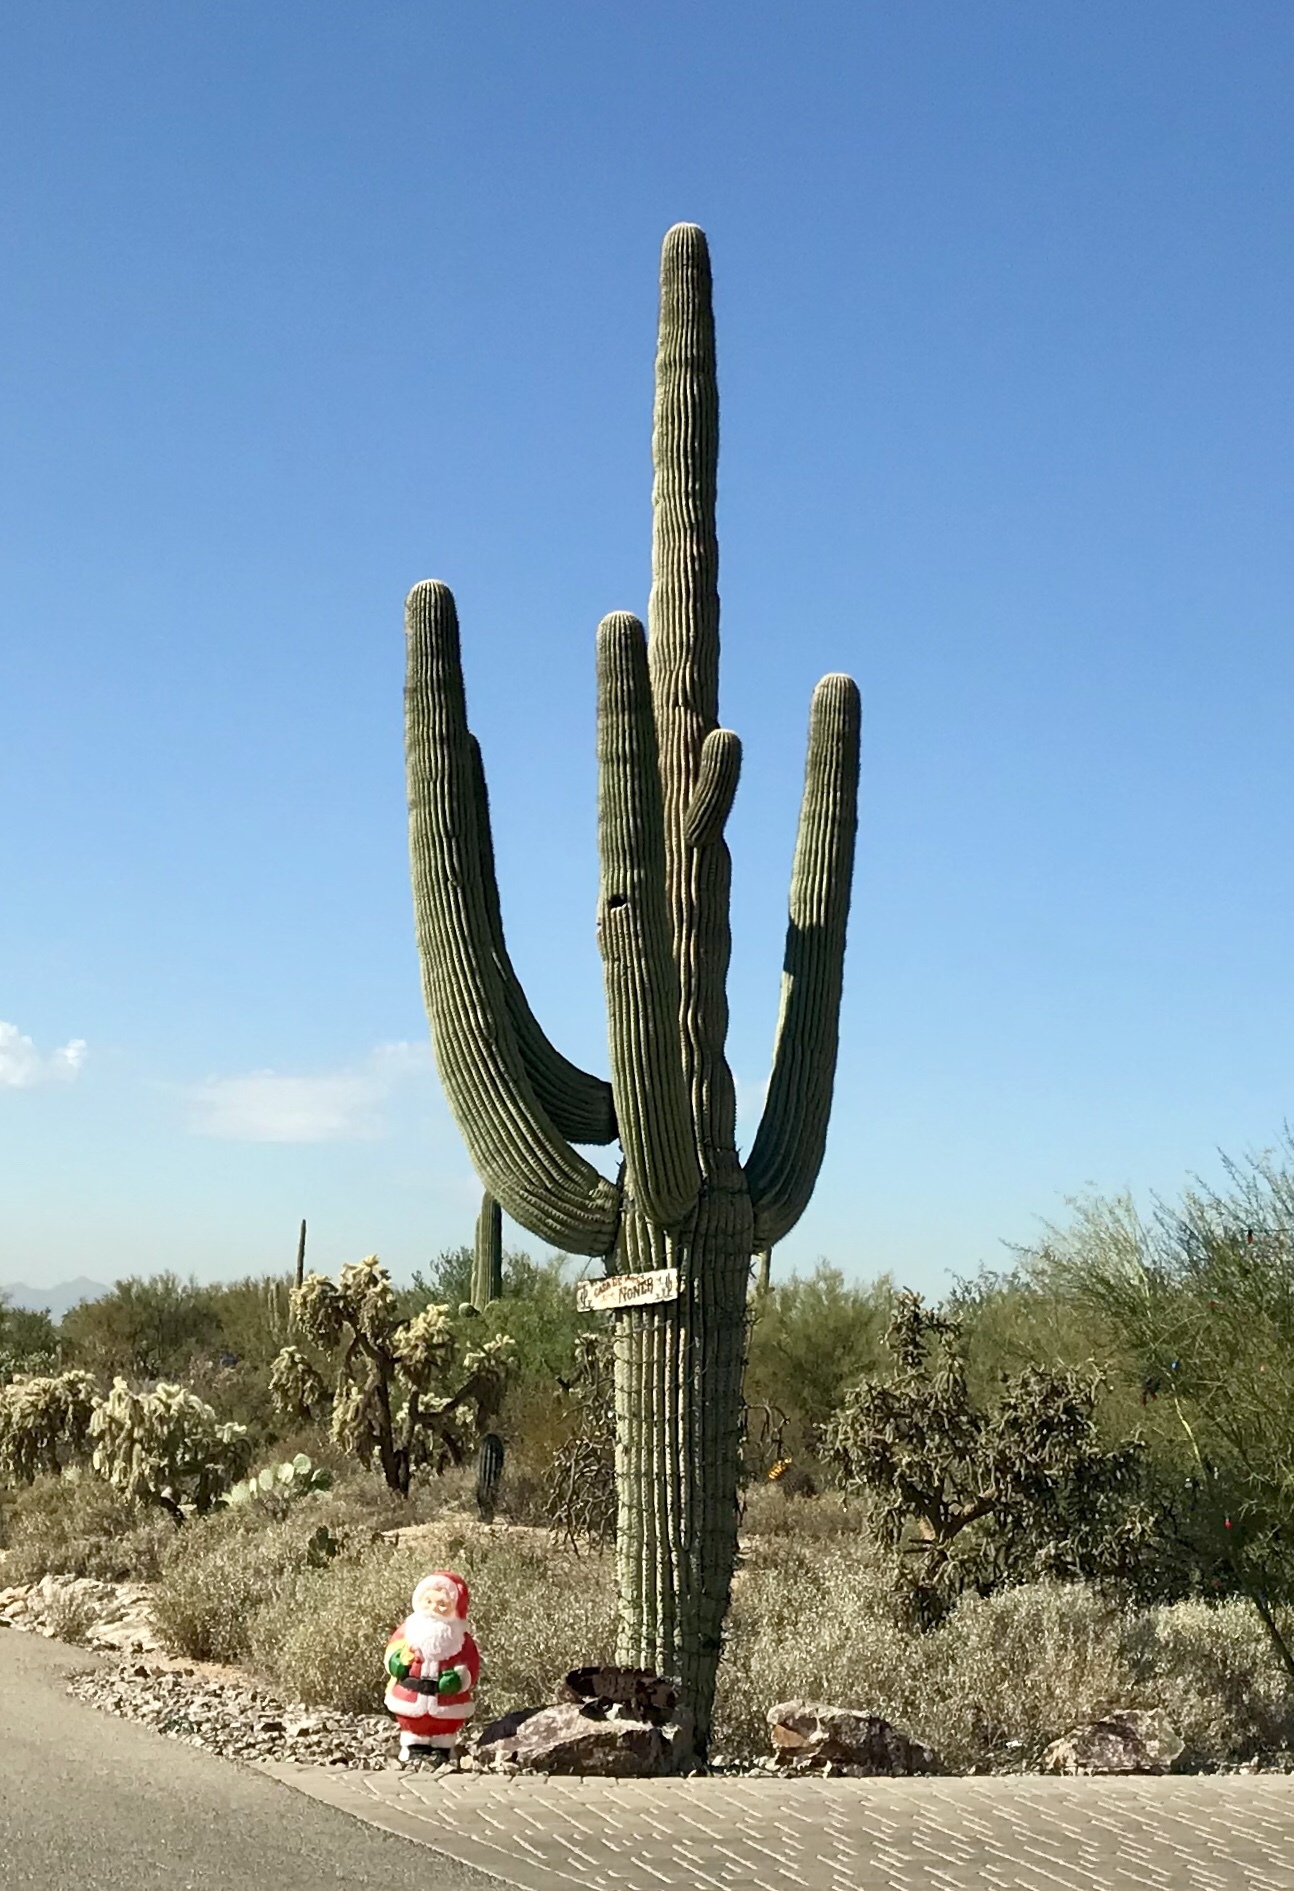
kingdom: Plantae
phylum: Tracheophyta
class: Magnoliopsida
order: Caryophyllales
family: Cactaceae
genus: Carnegiea
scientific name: Carnegiea gigantea
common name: Saguaro
